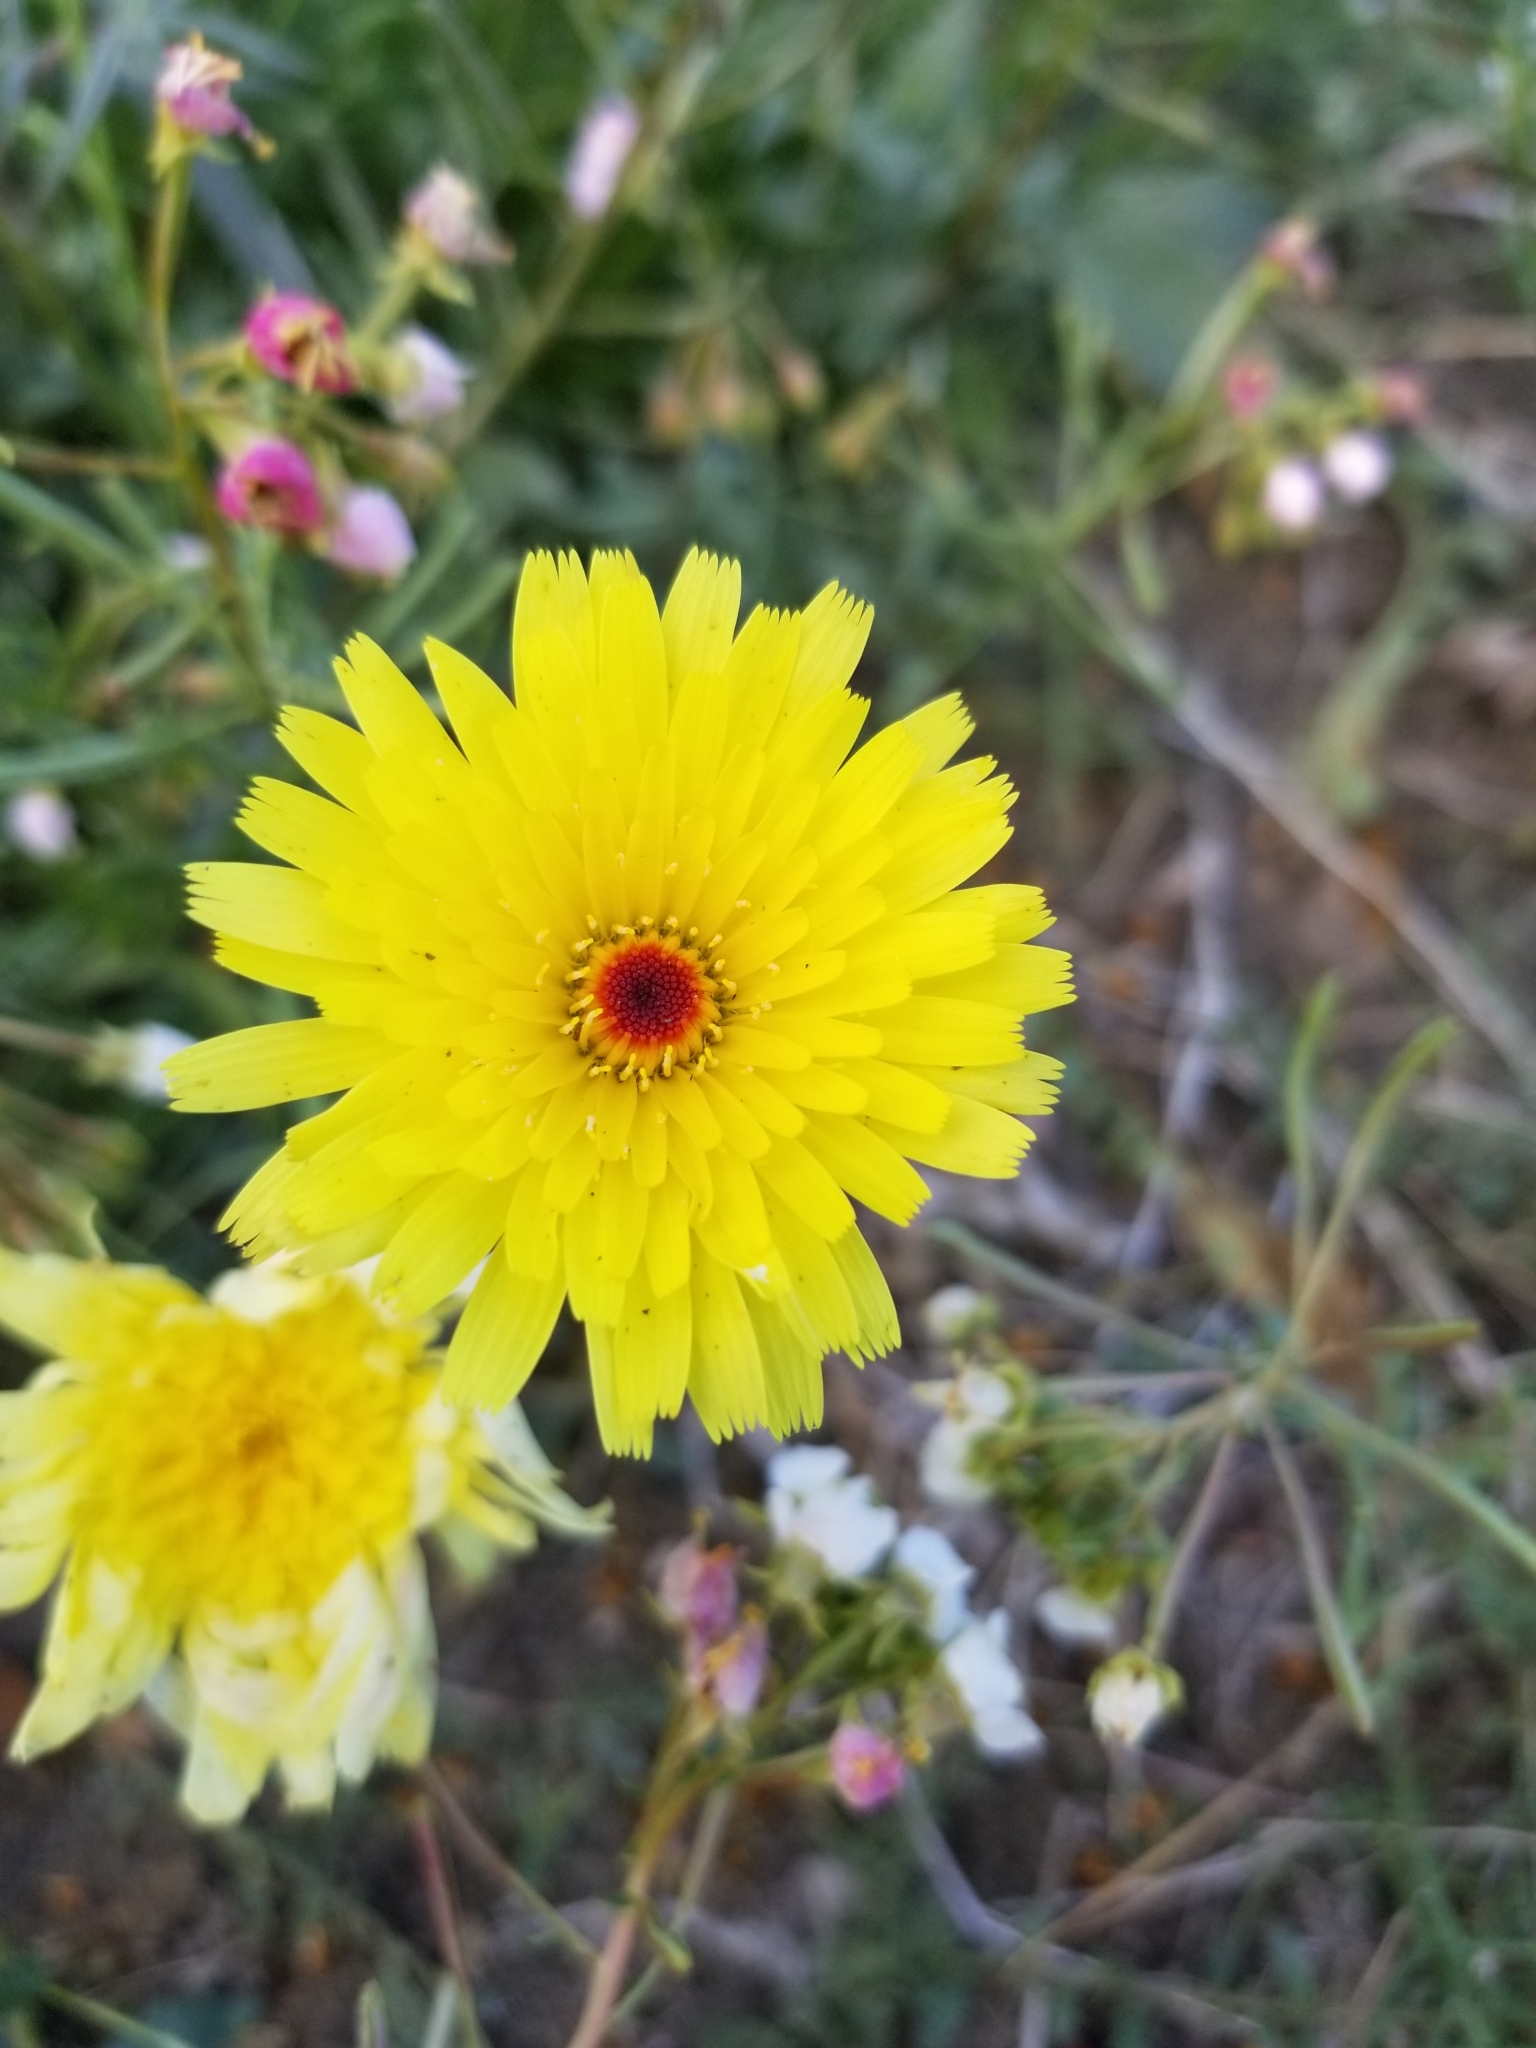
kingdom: Plantae
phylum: Tracheophyta
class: Magnoliopsida
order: Asterales
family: Asteraceae
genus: Malacothrix
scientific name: Malacothrix glabrata
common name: Smooth desert-dandelion
